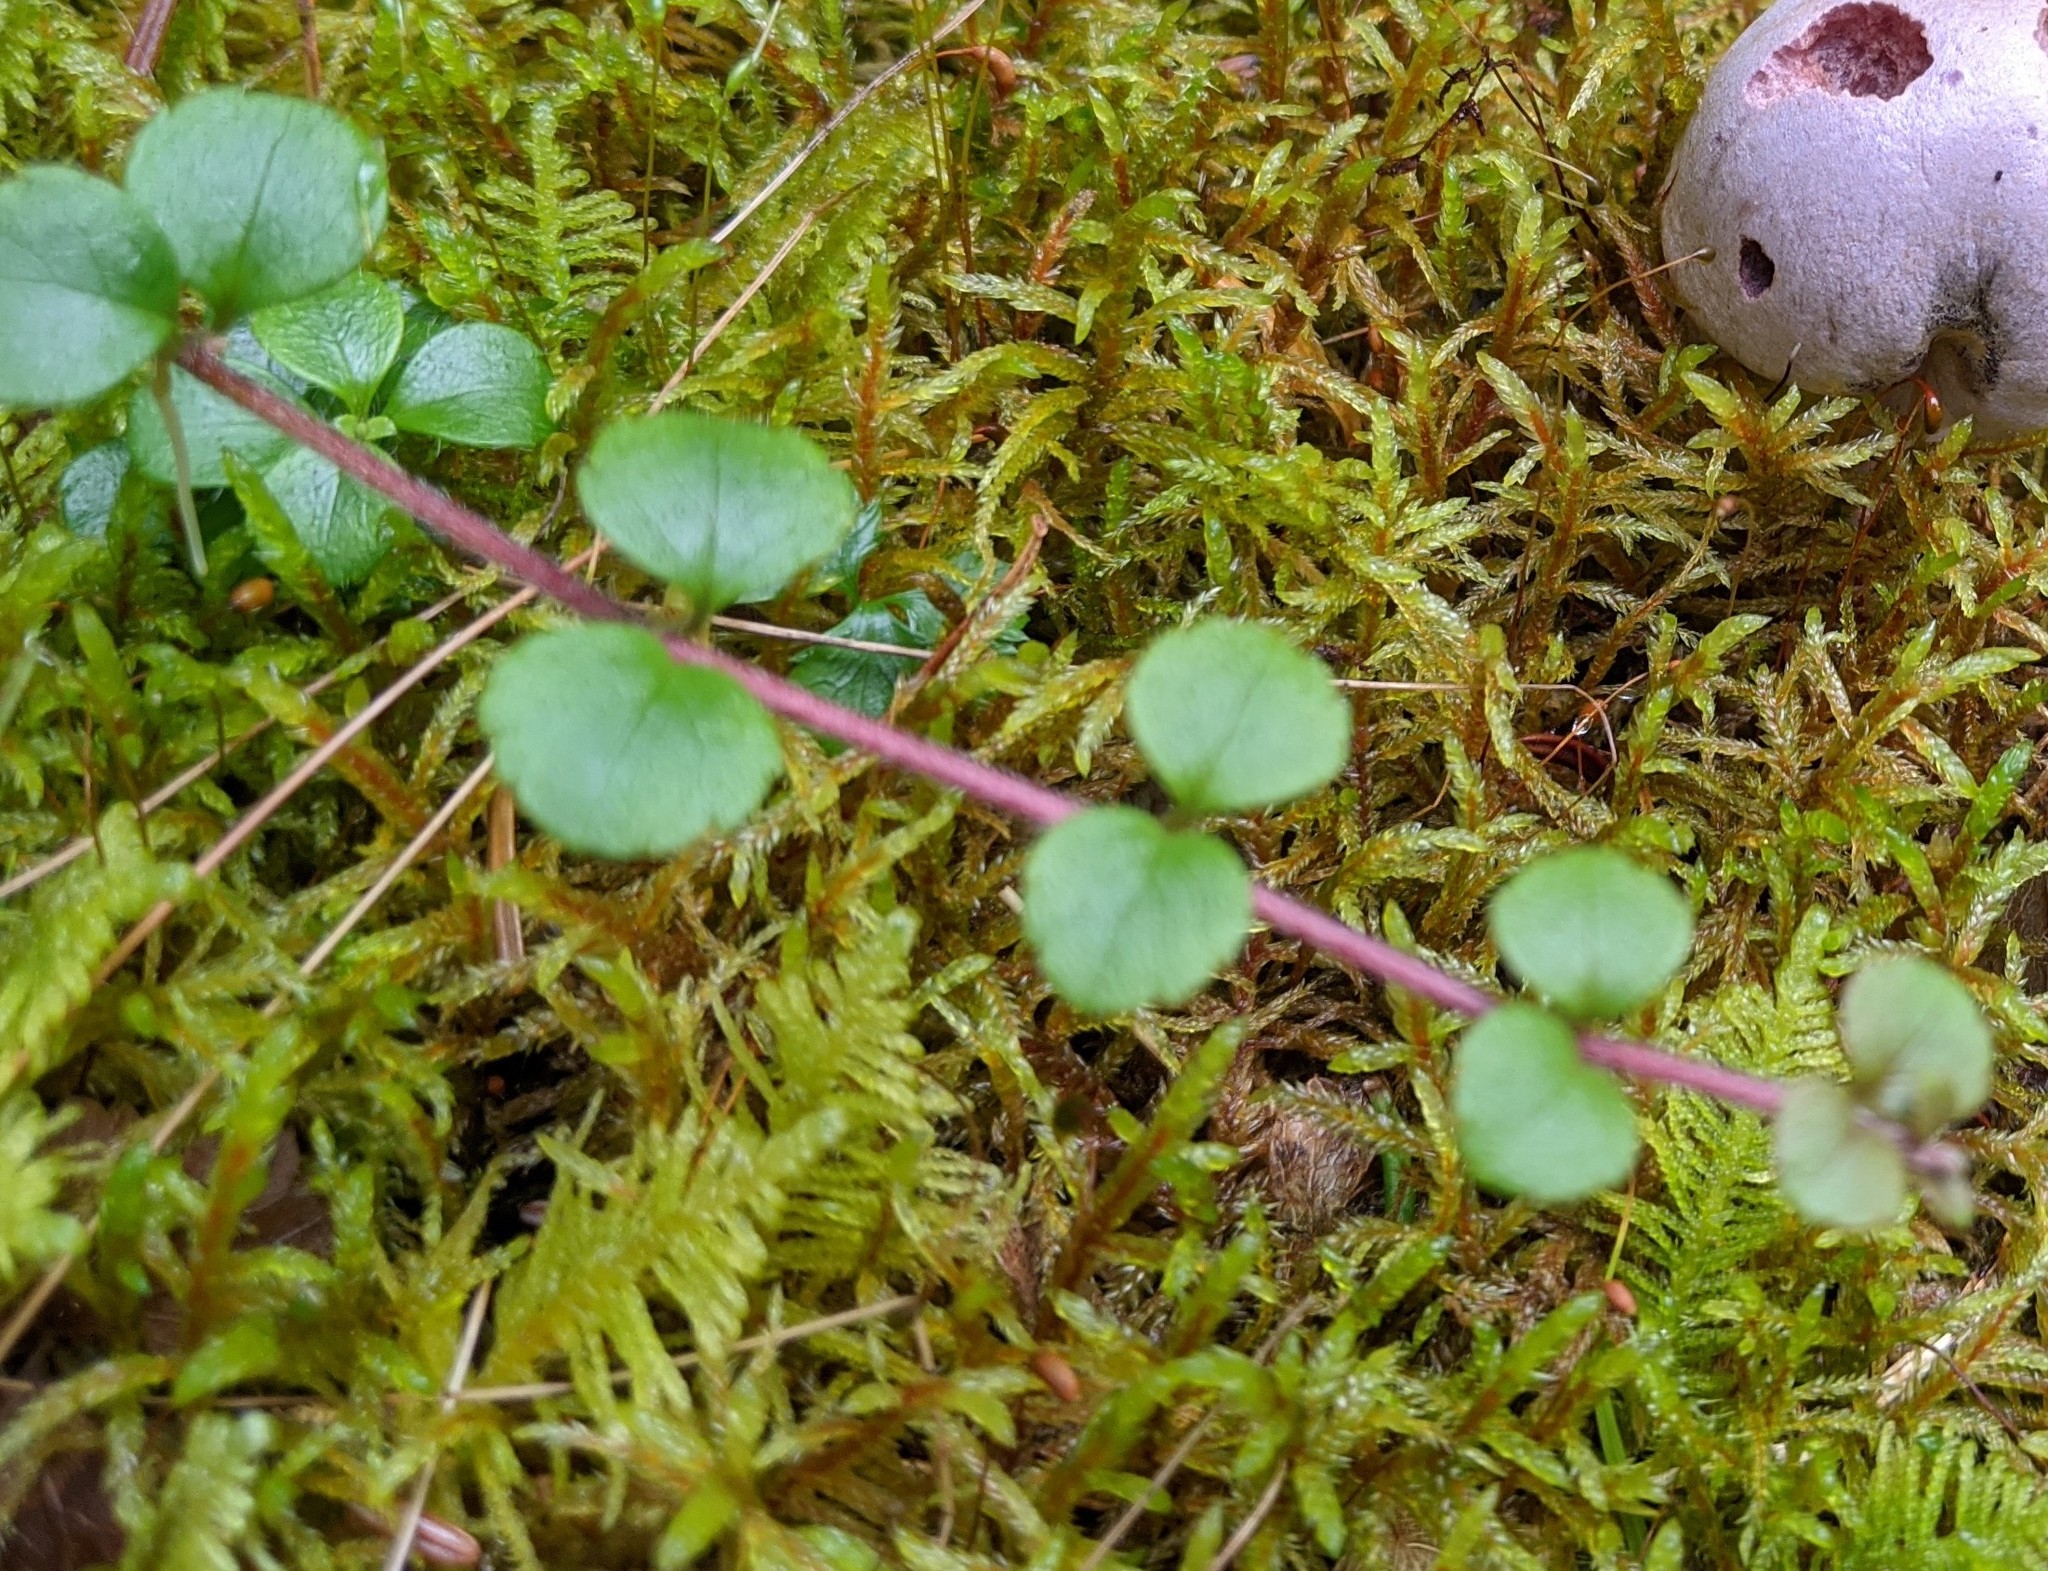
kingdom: Plantae
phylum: Tracheophyta
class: Magnoliopsida
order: Ericales
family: Ericaceae
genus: Gaultheria
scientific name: Gaultheria hispidula
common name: Cancer wintergreen
